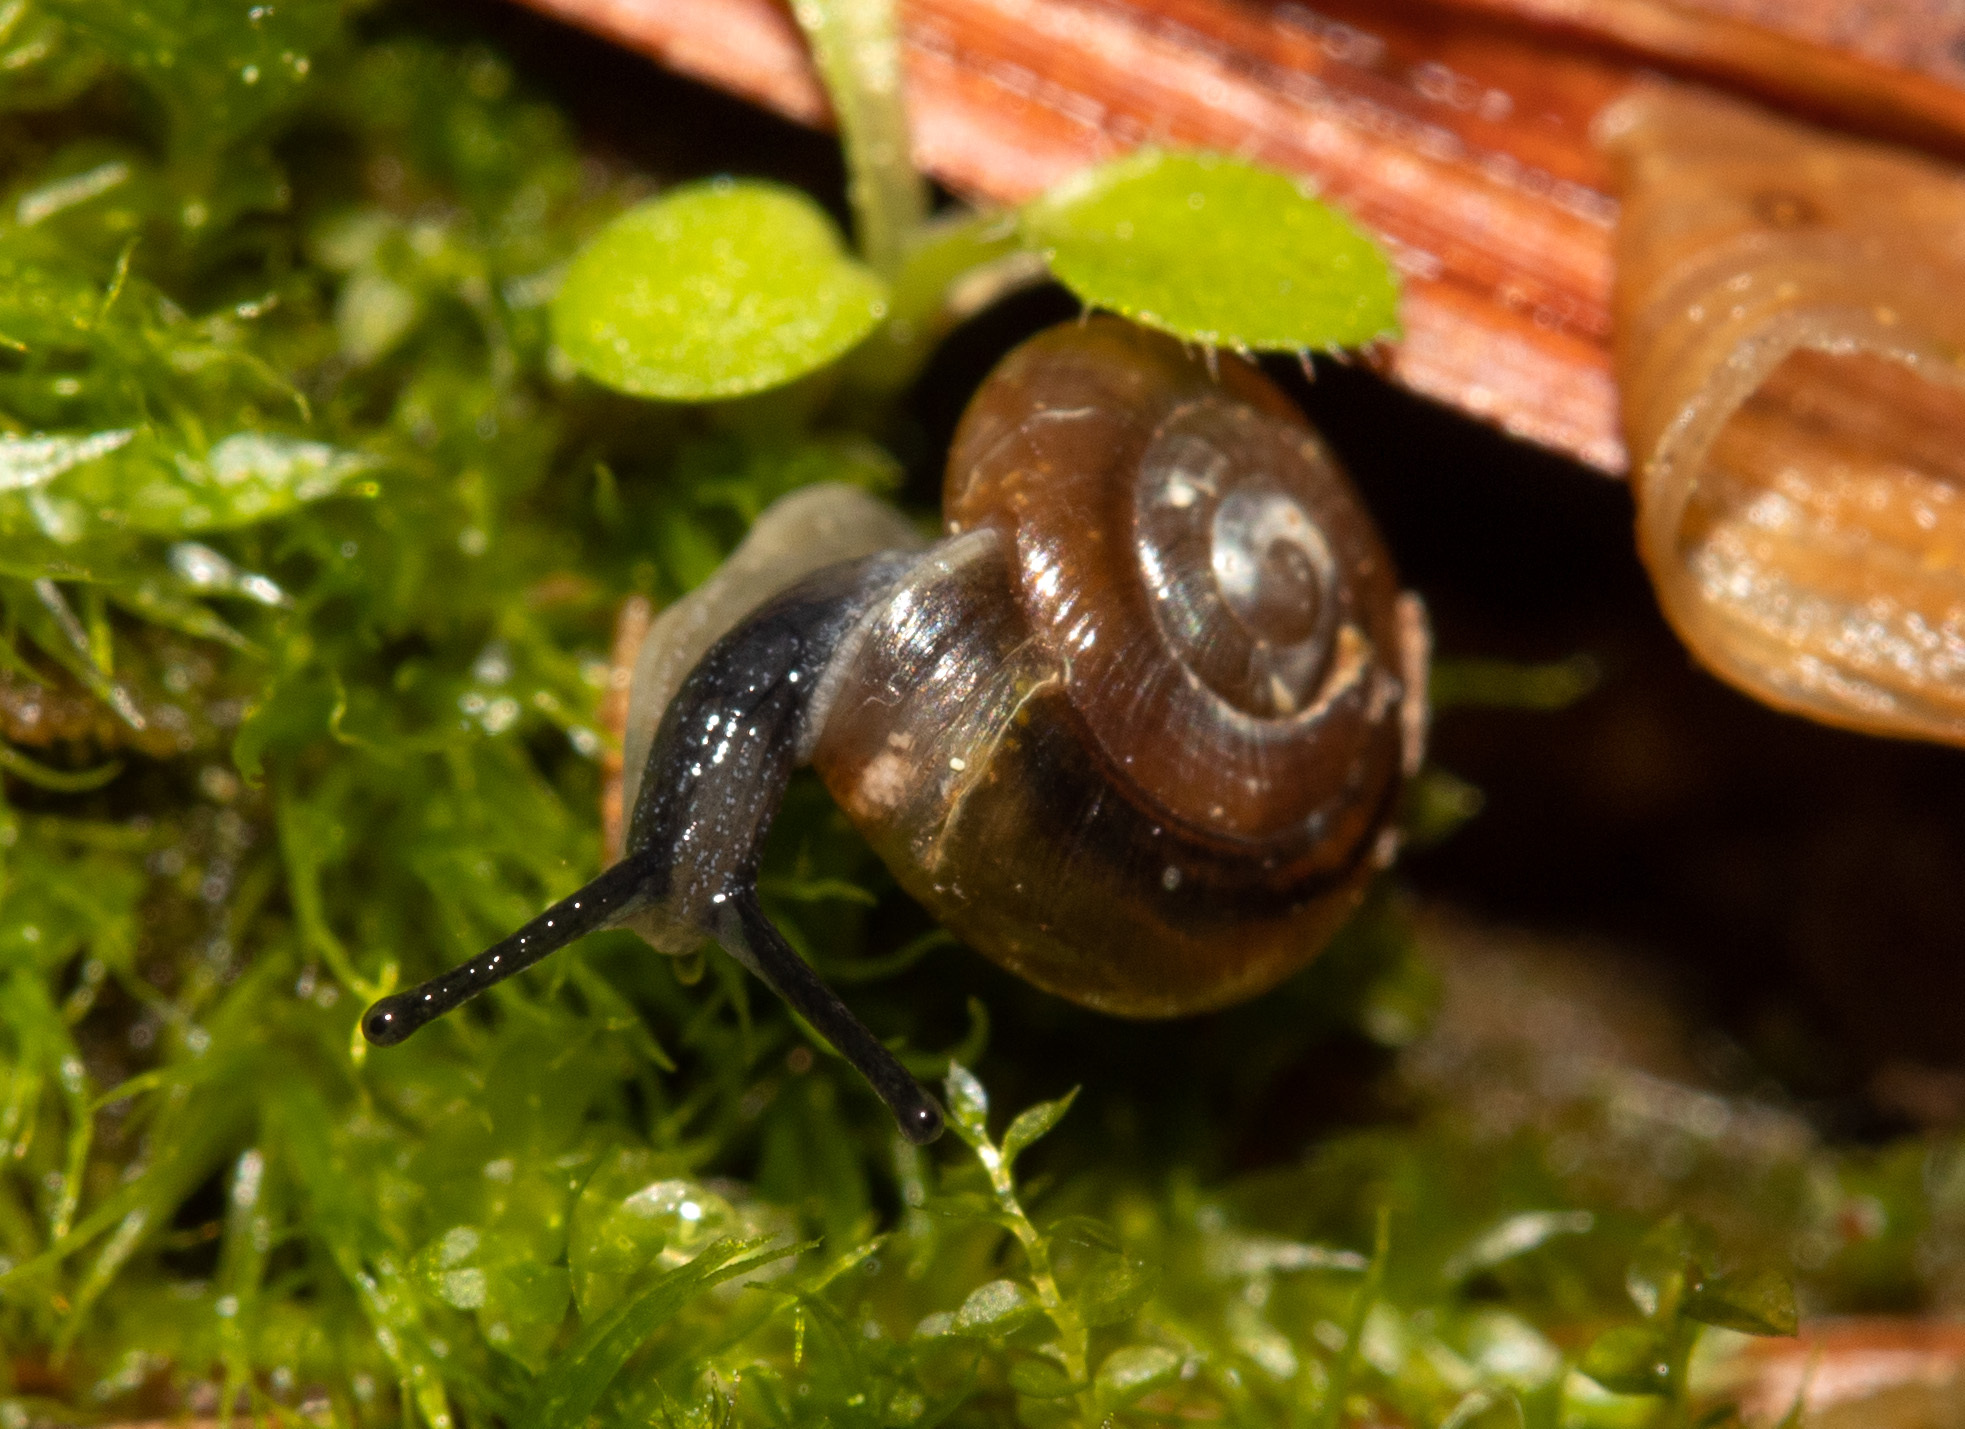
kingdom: Animalia
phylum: Mollusca
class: Gastropoda
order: Stylommatophora
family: Gastrodontidae
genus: Zonitoides
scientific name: Zonitoides arboreus
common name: Quick gloss
